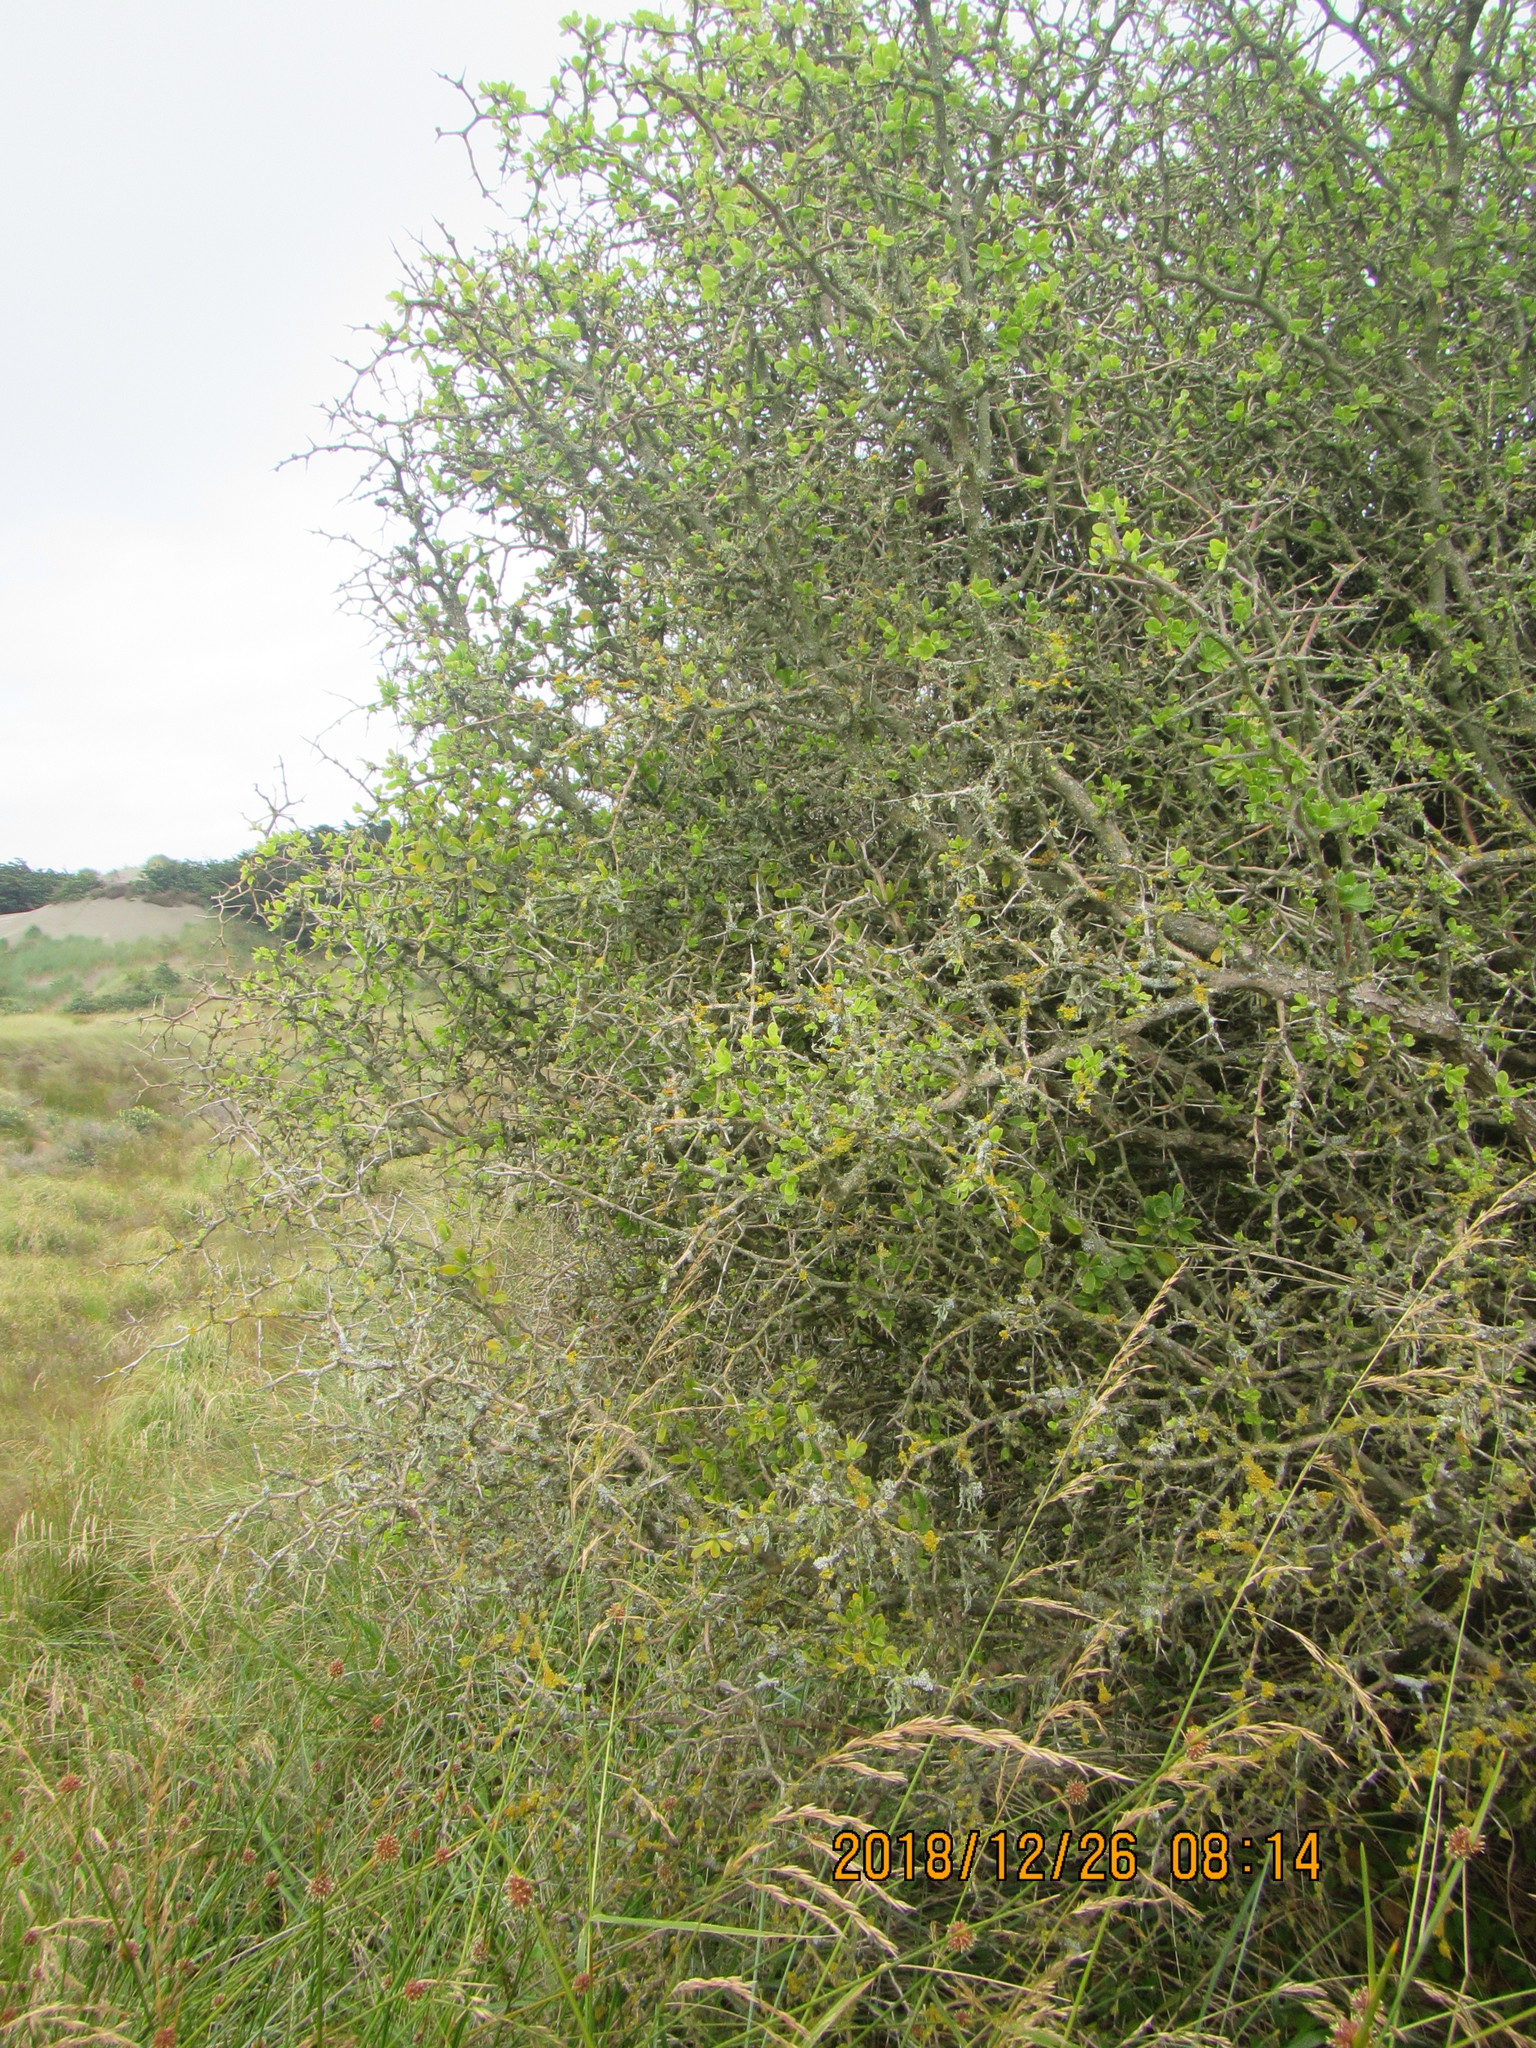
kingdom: Plantae
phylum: Tracheophyta
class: Magnoliopsida
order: Solanales
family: Solanaceae
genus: Lycium
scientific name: Lycium ferocissimum
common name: African boxthorn
